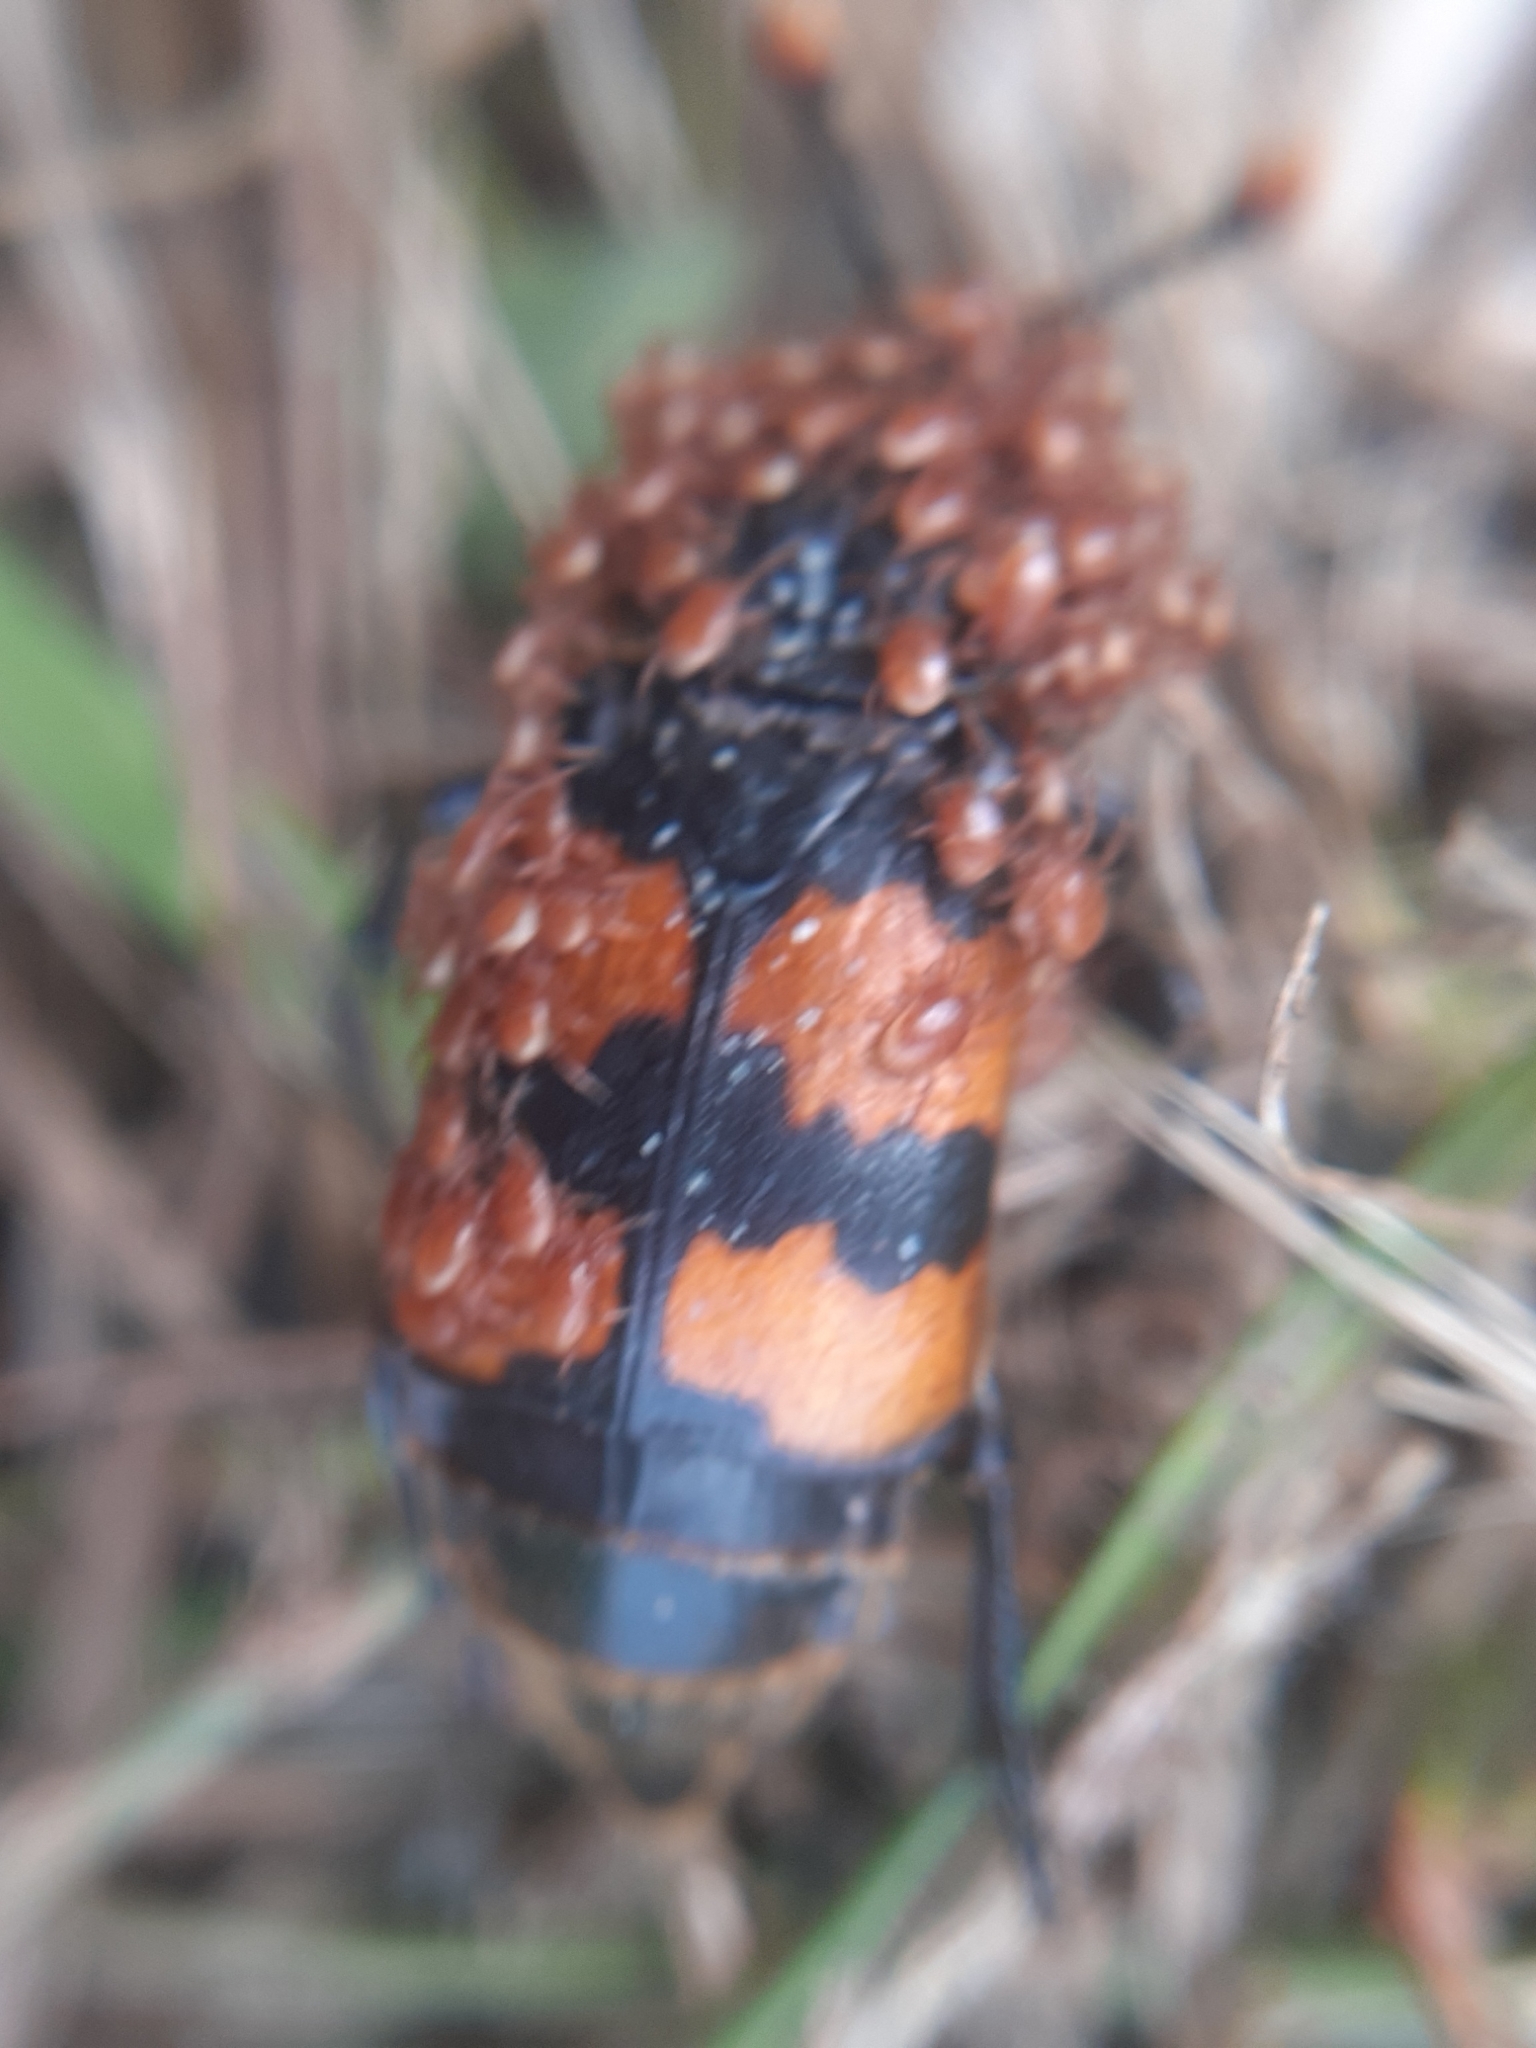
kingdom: Animalia
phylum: Arthropoda
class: Insecta
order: Coleoptera
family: Staphylinidae
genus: Nicrophorus
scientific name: Nicrophorus interruptus
